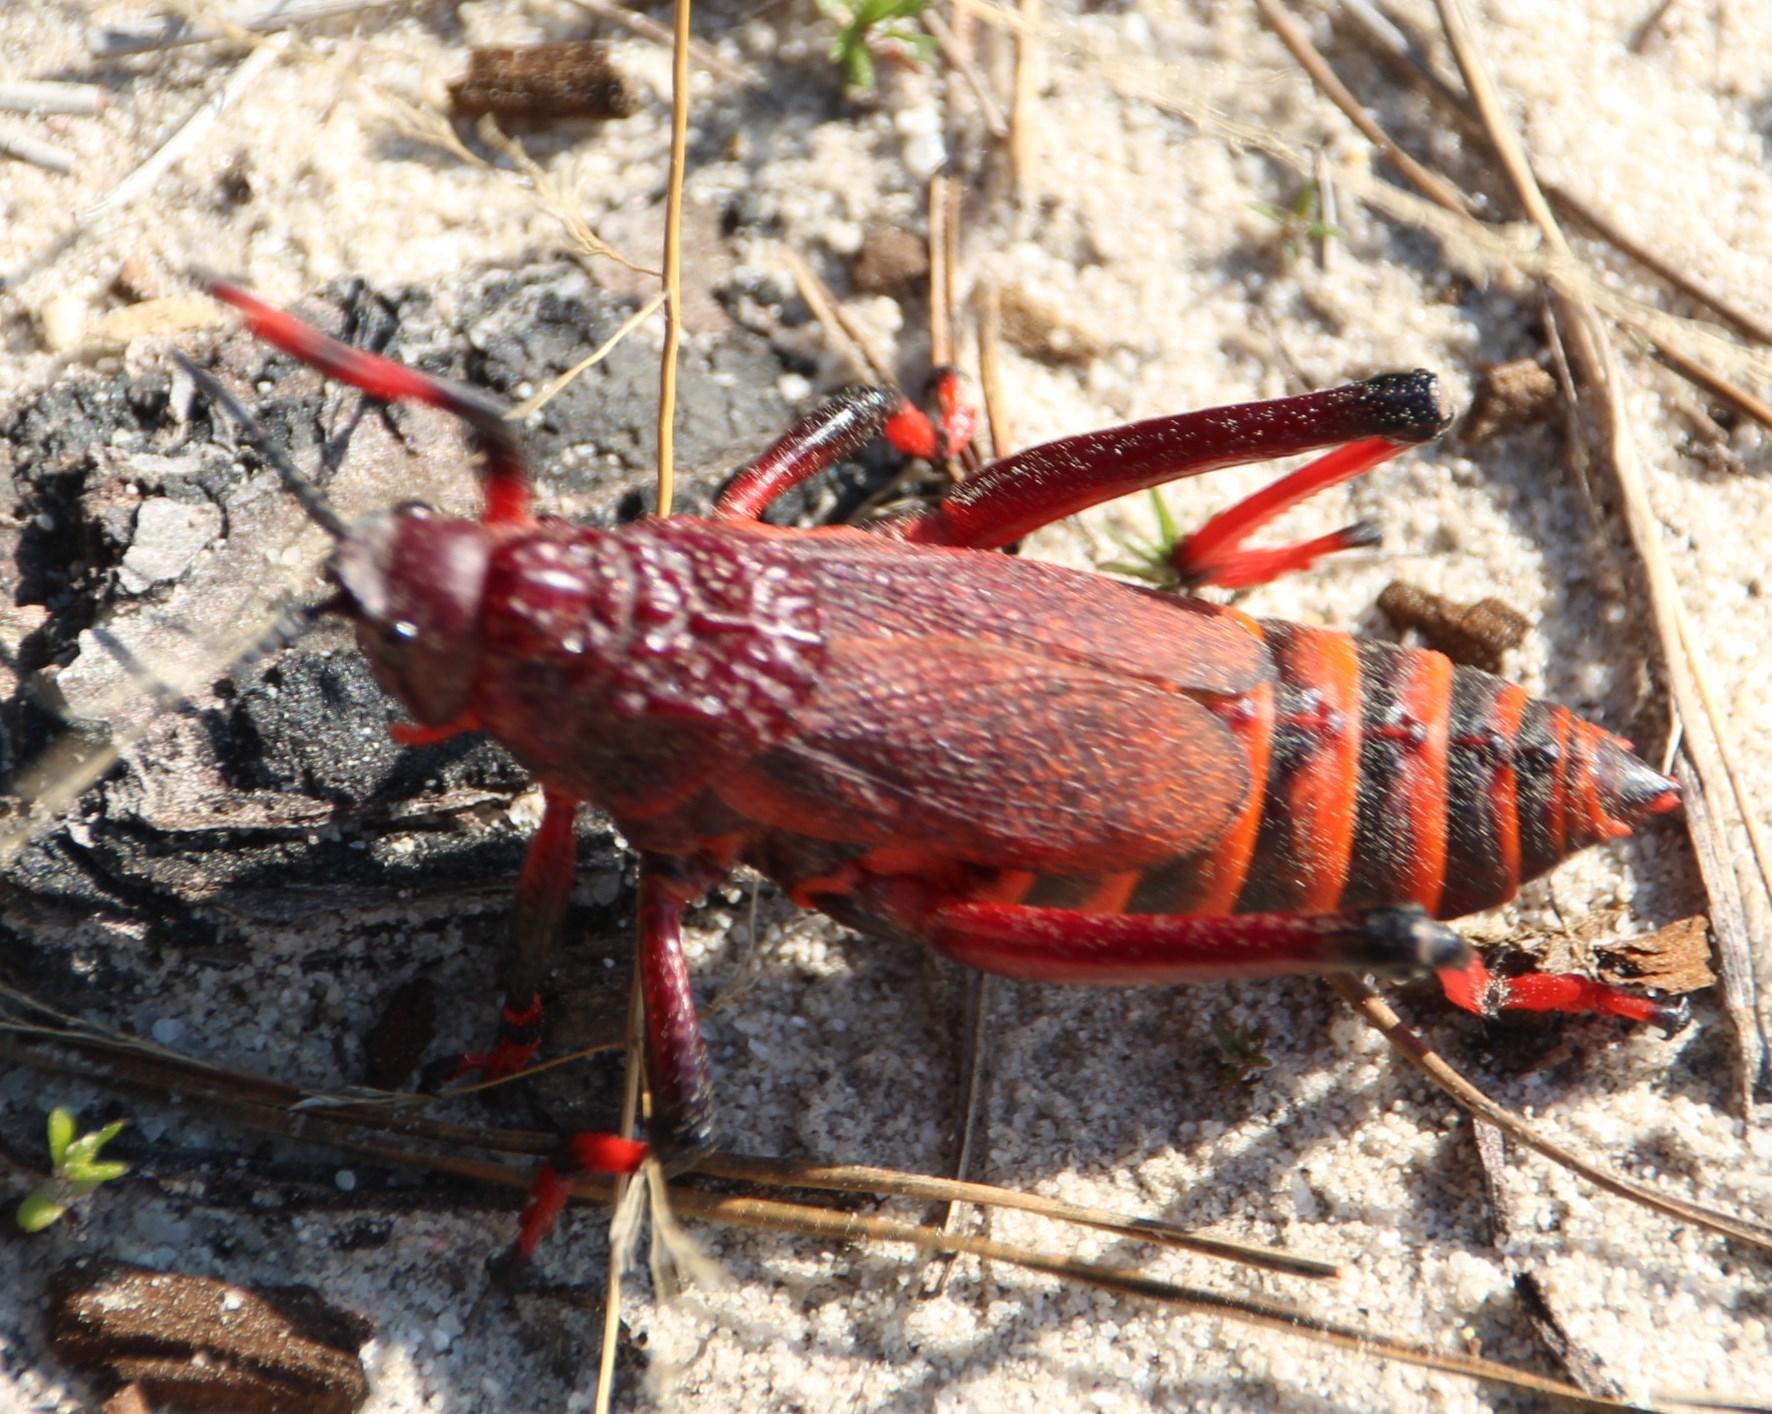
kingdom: Animalia
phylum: Arthropoda
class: Insecta
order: Orthoptera
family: Pyrgomorphidae
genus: Dictyophorus
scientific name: Dictyophorus spumans
